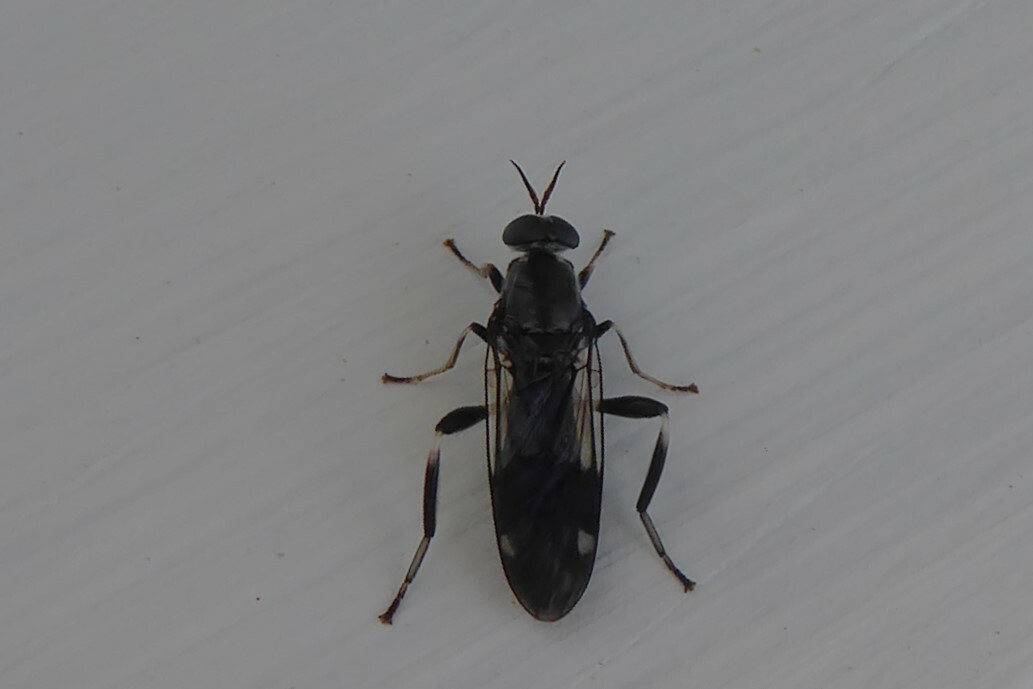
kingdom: Animalia
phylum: Arthropoda
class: Insecta
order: Diptera
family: Stratiomyidae
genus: Exaireta
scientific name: Exaireta spinigera
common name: Blue soldier fly
